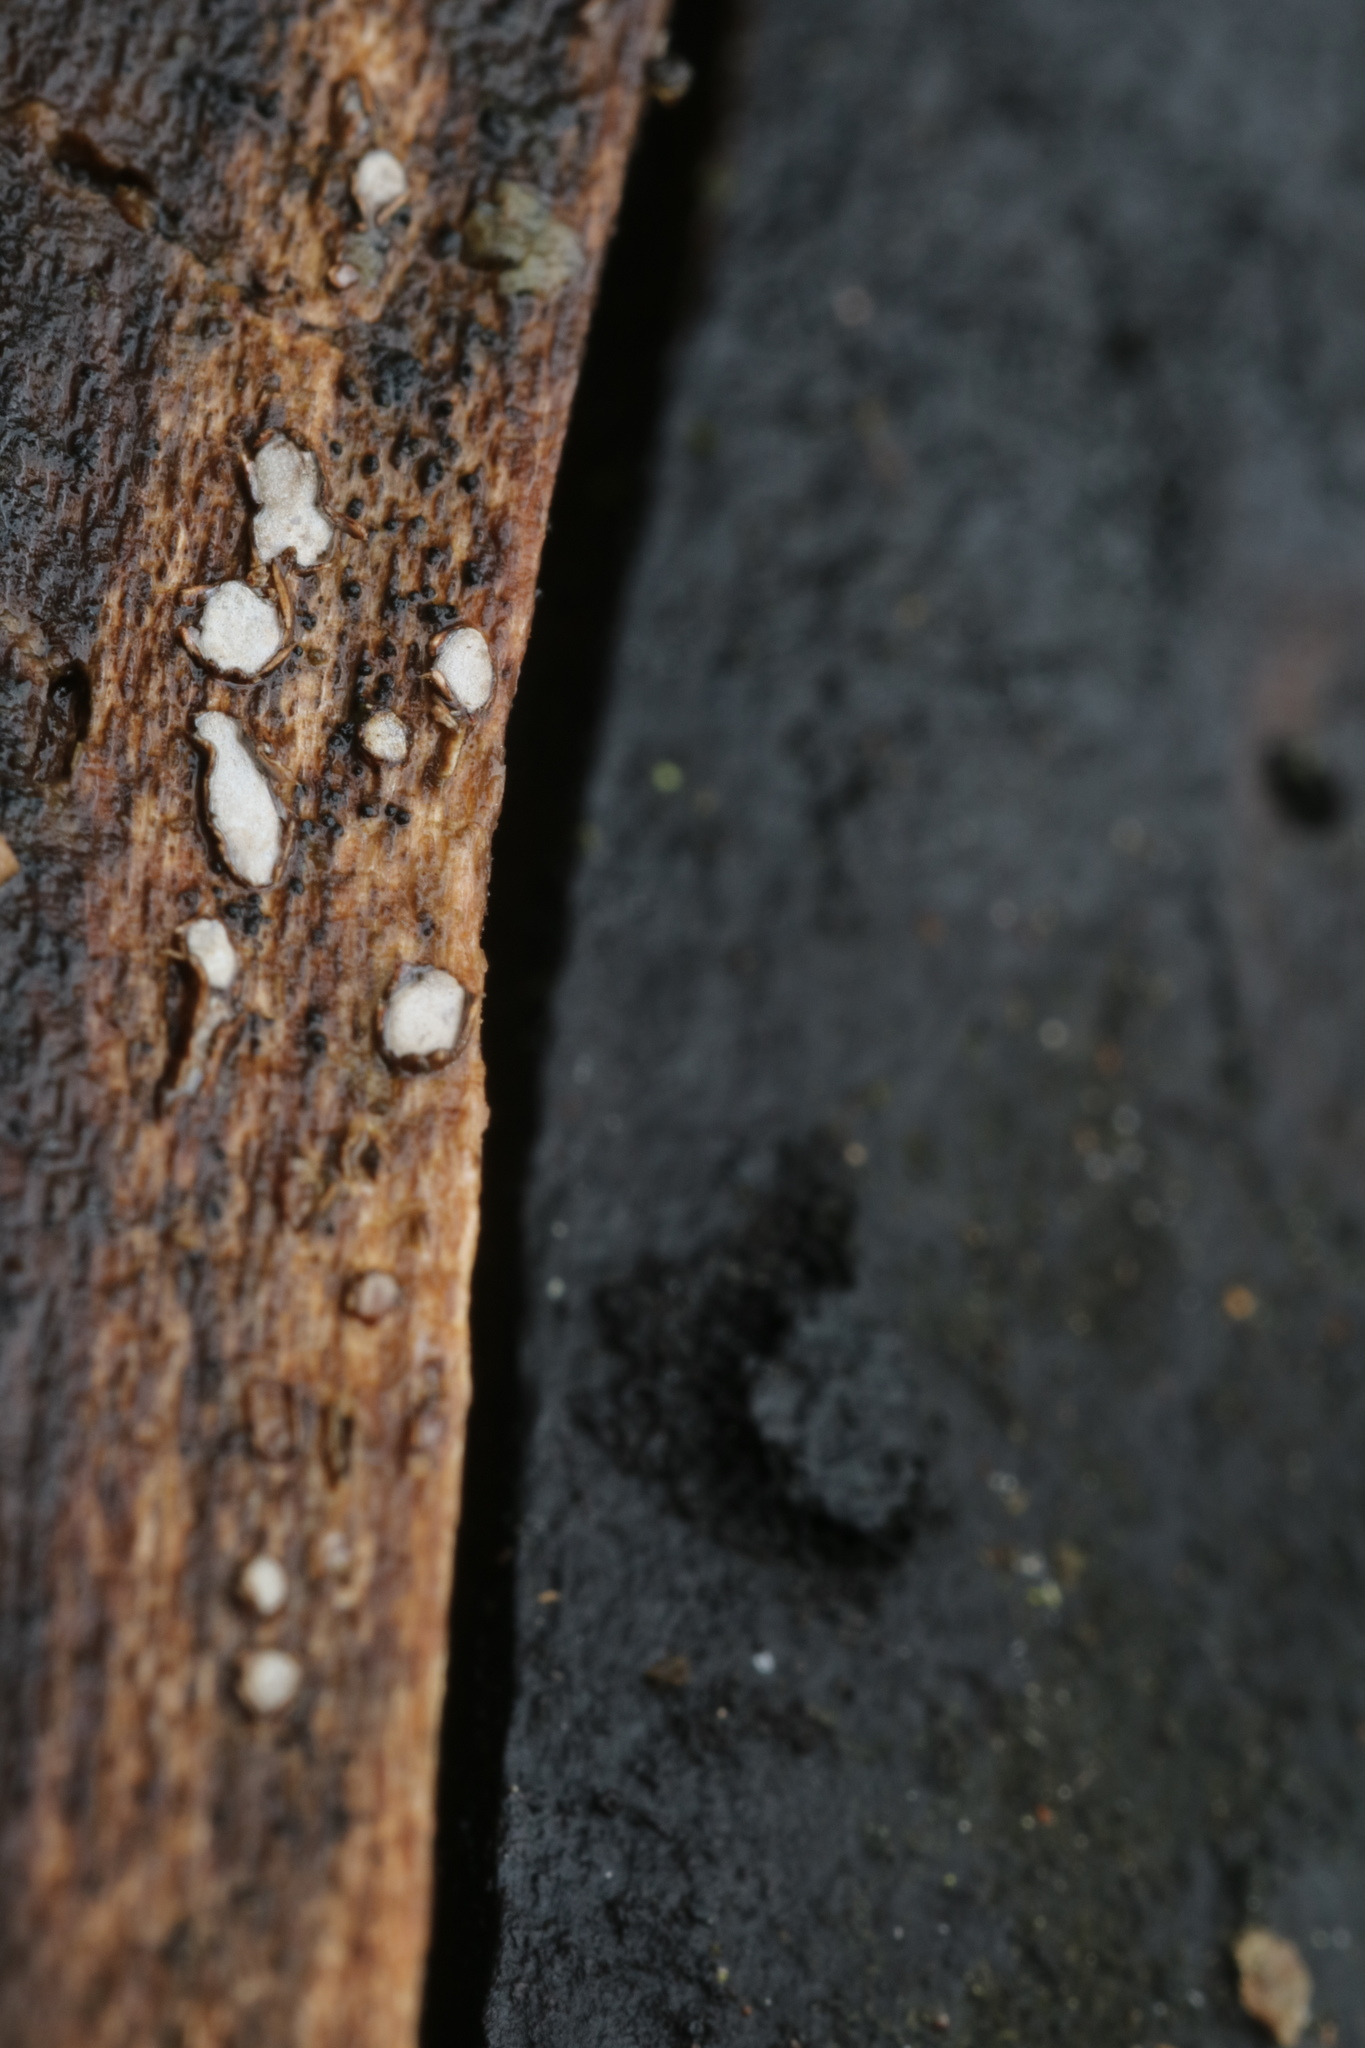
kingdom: Fungi
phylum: Ascomycota
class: Leotiomycetes
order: Chaetomellales
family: Marthamycetaceae
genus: Propolis
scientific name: Propolis farinosa
